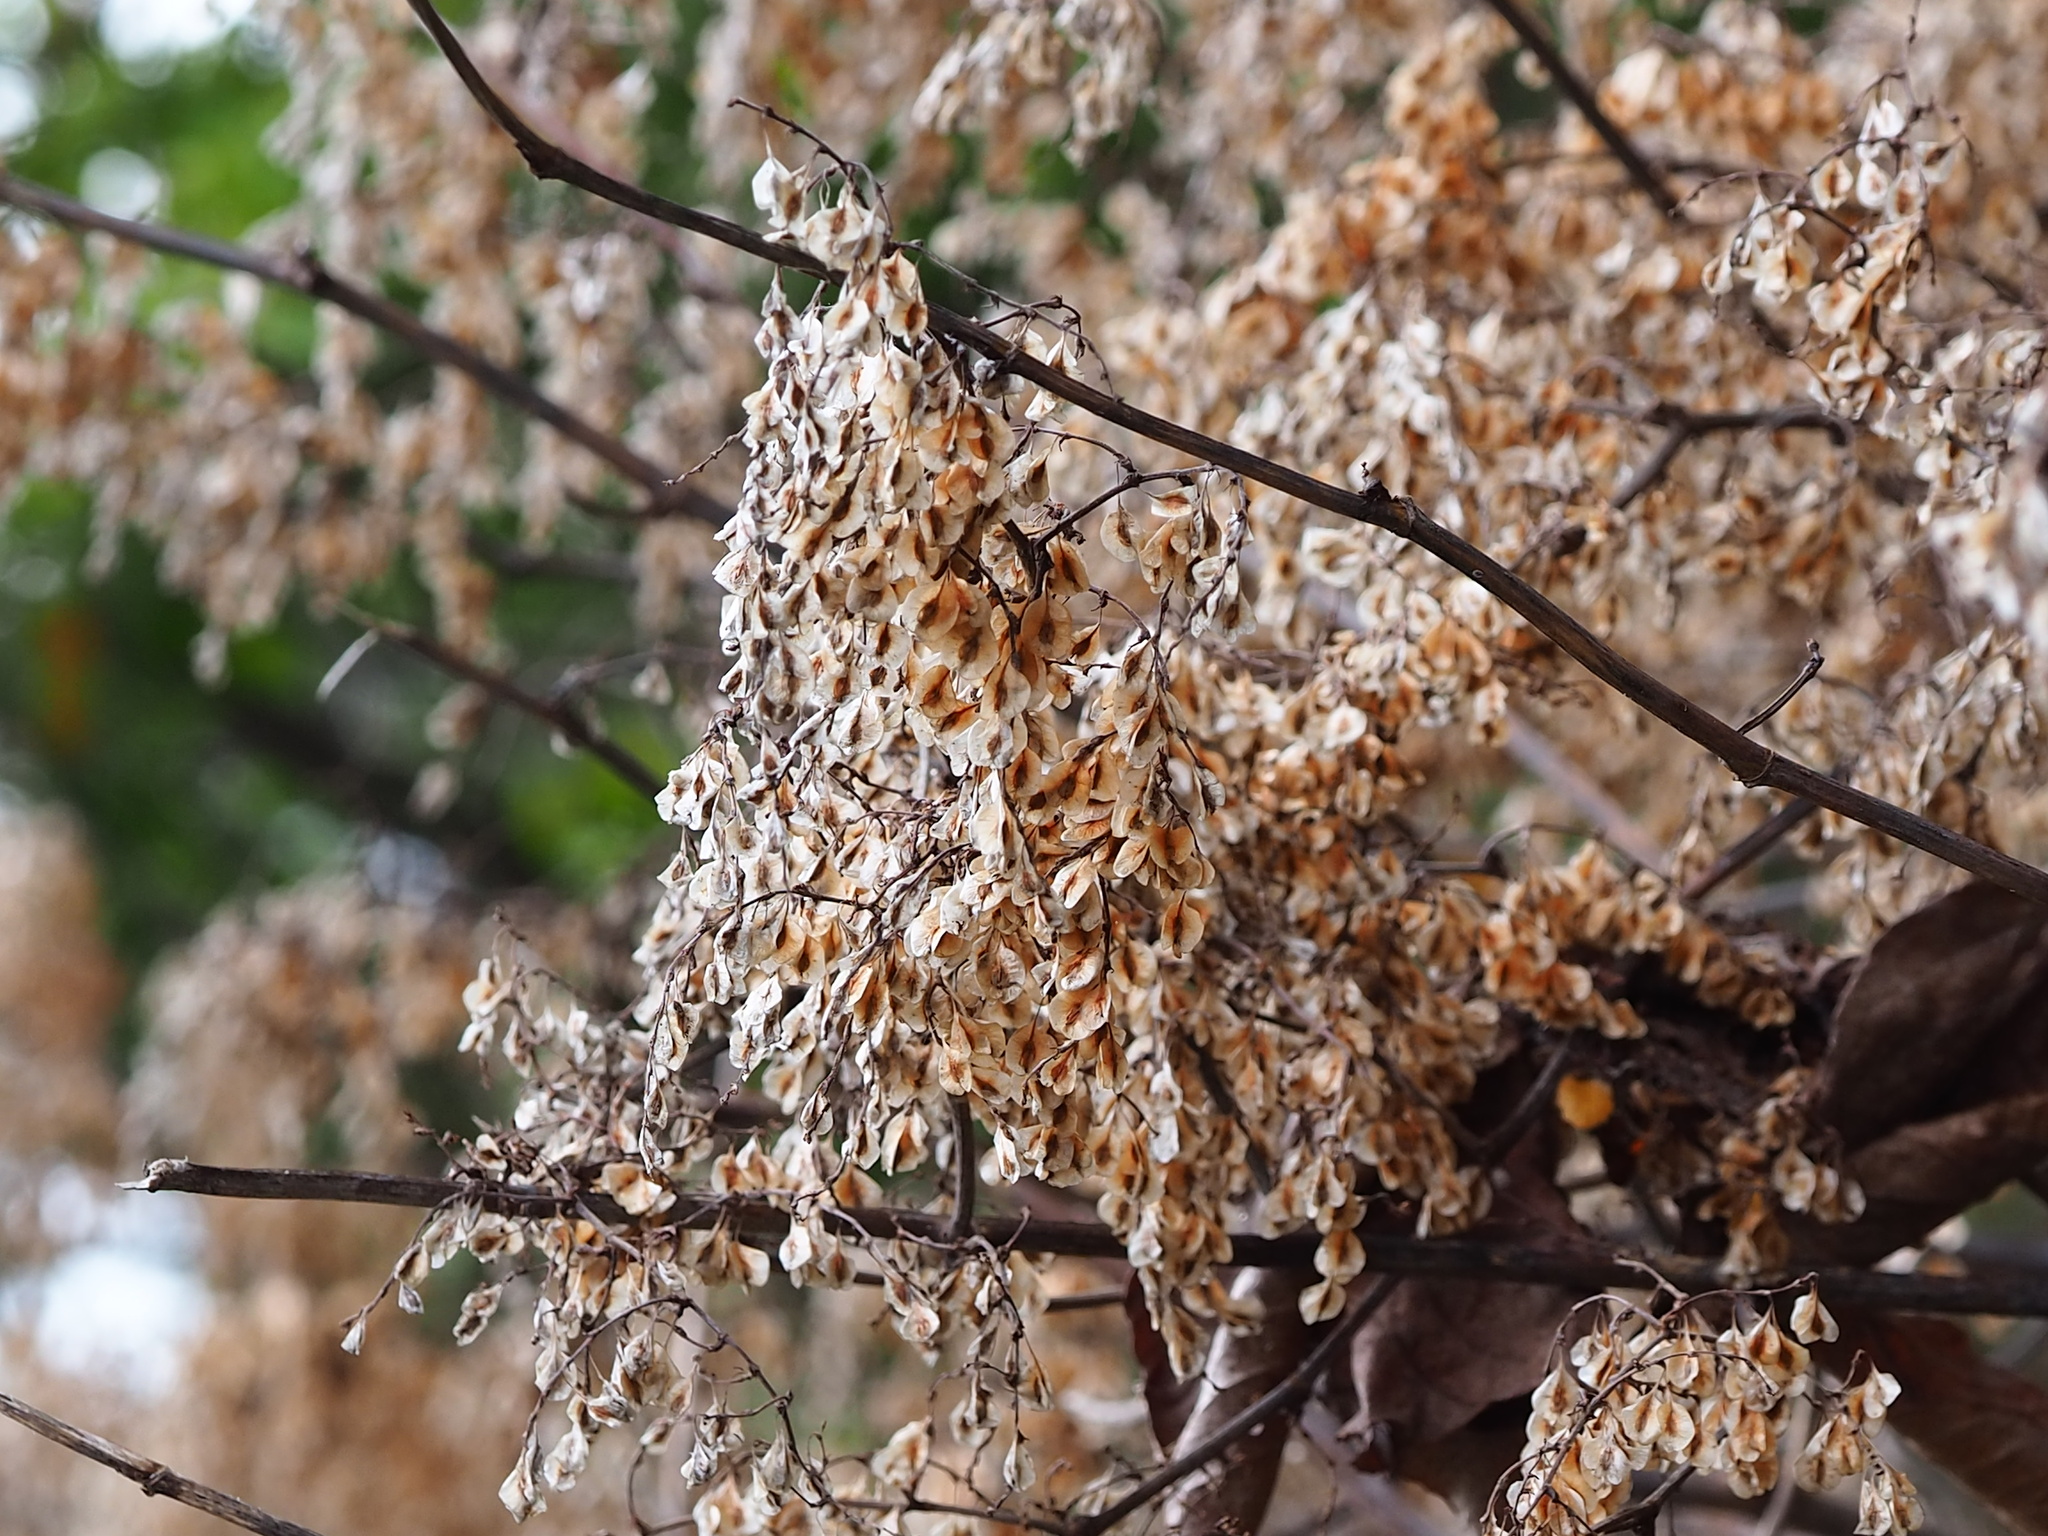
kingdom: Plantae
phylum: Tracheophyta
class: Magnoliopsida
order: Caryophyllales
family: Polygonaceae
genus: Reynoutria
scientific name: Reynoutria japonica
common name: Japanese knotweed
